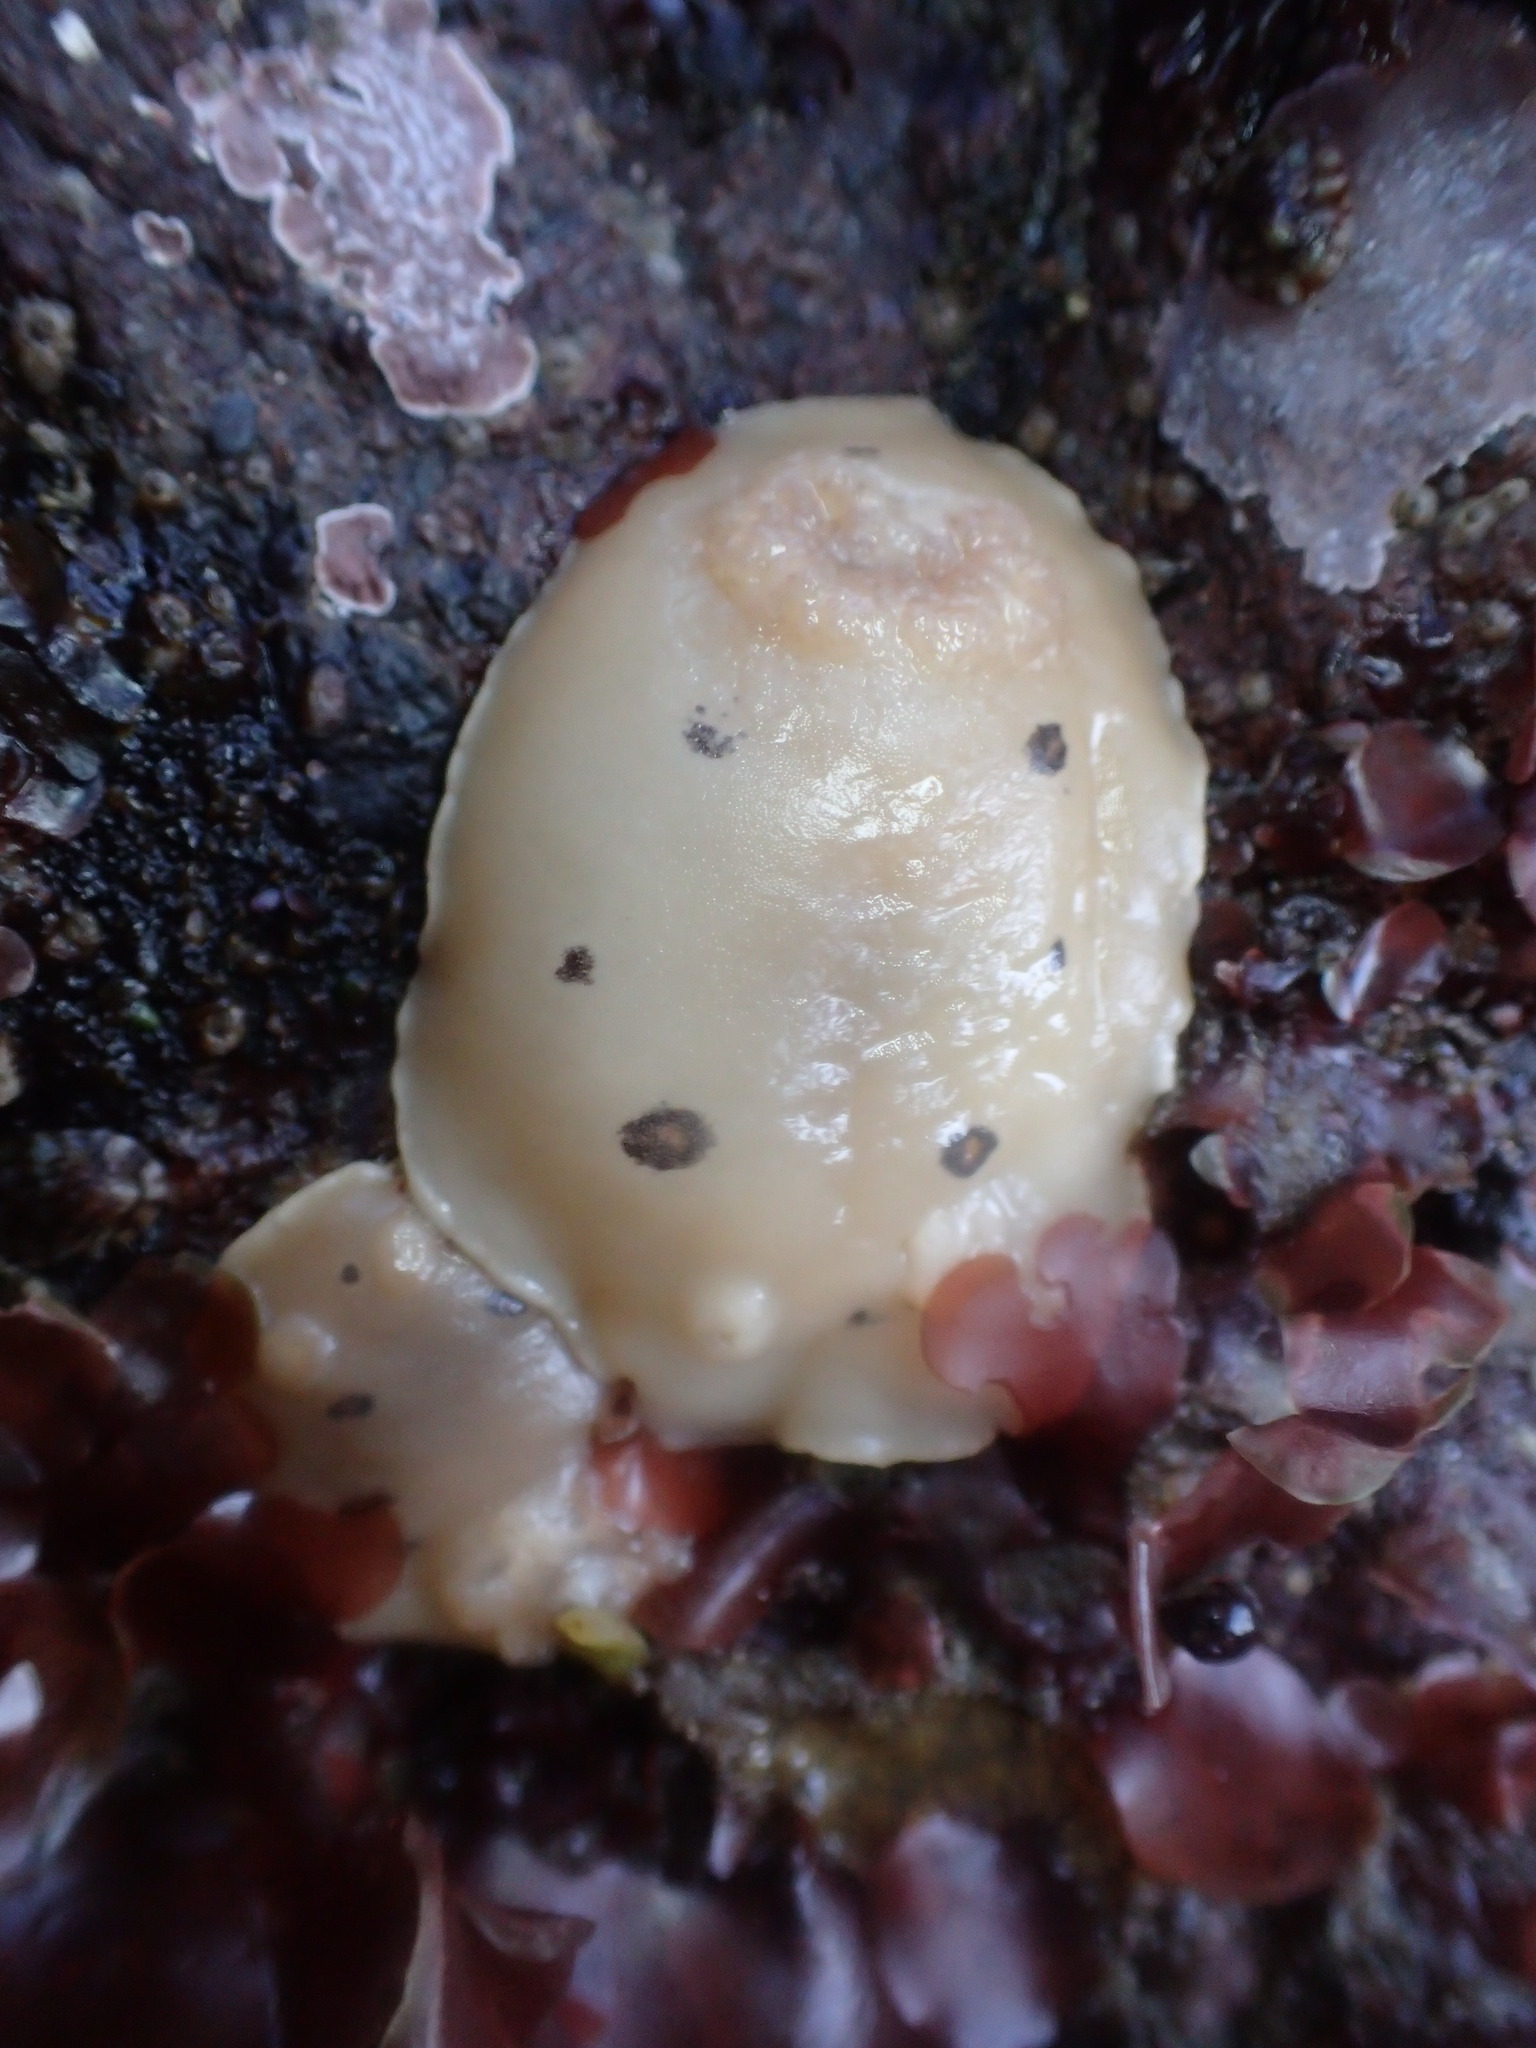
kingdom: Animalia
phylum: Mollusca
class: Gastropoda
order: Nudibranchia
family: Discodorididae
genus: Diaulula
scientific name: Diaulula sandiegensis
